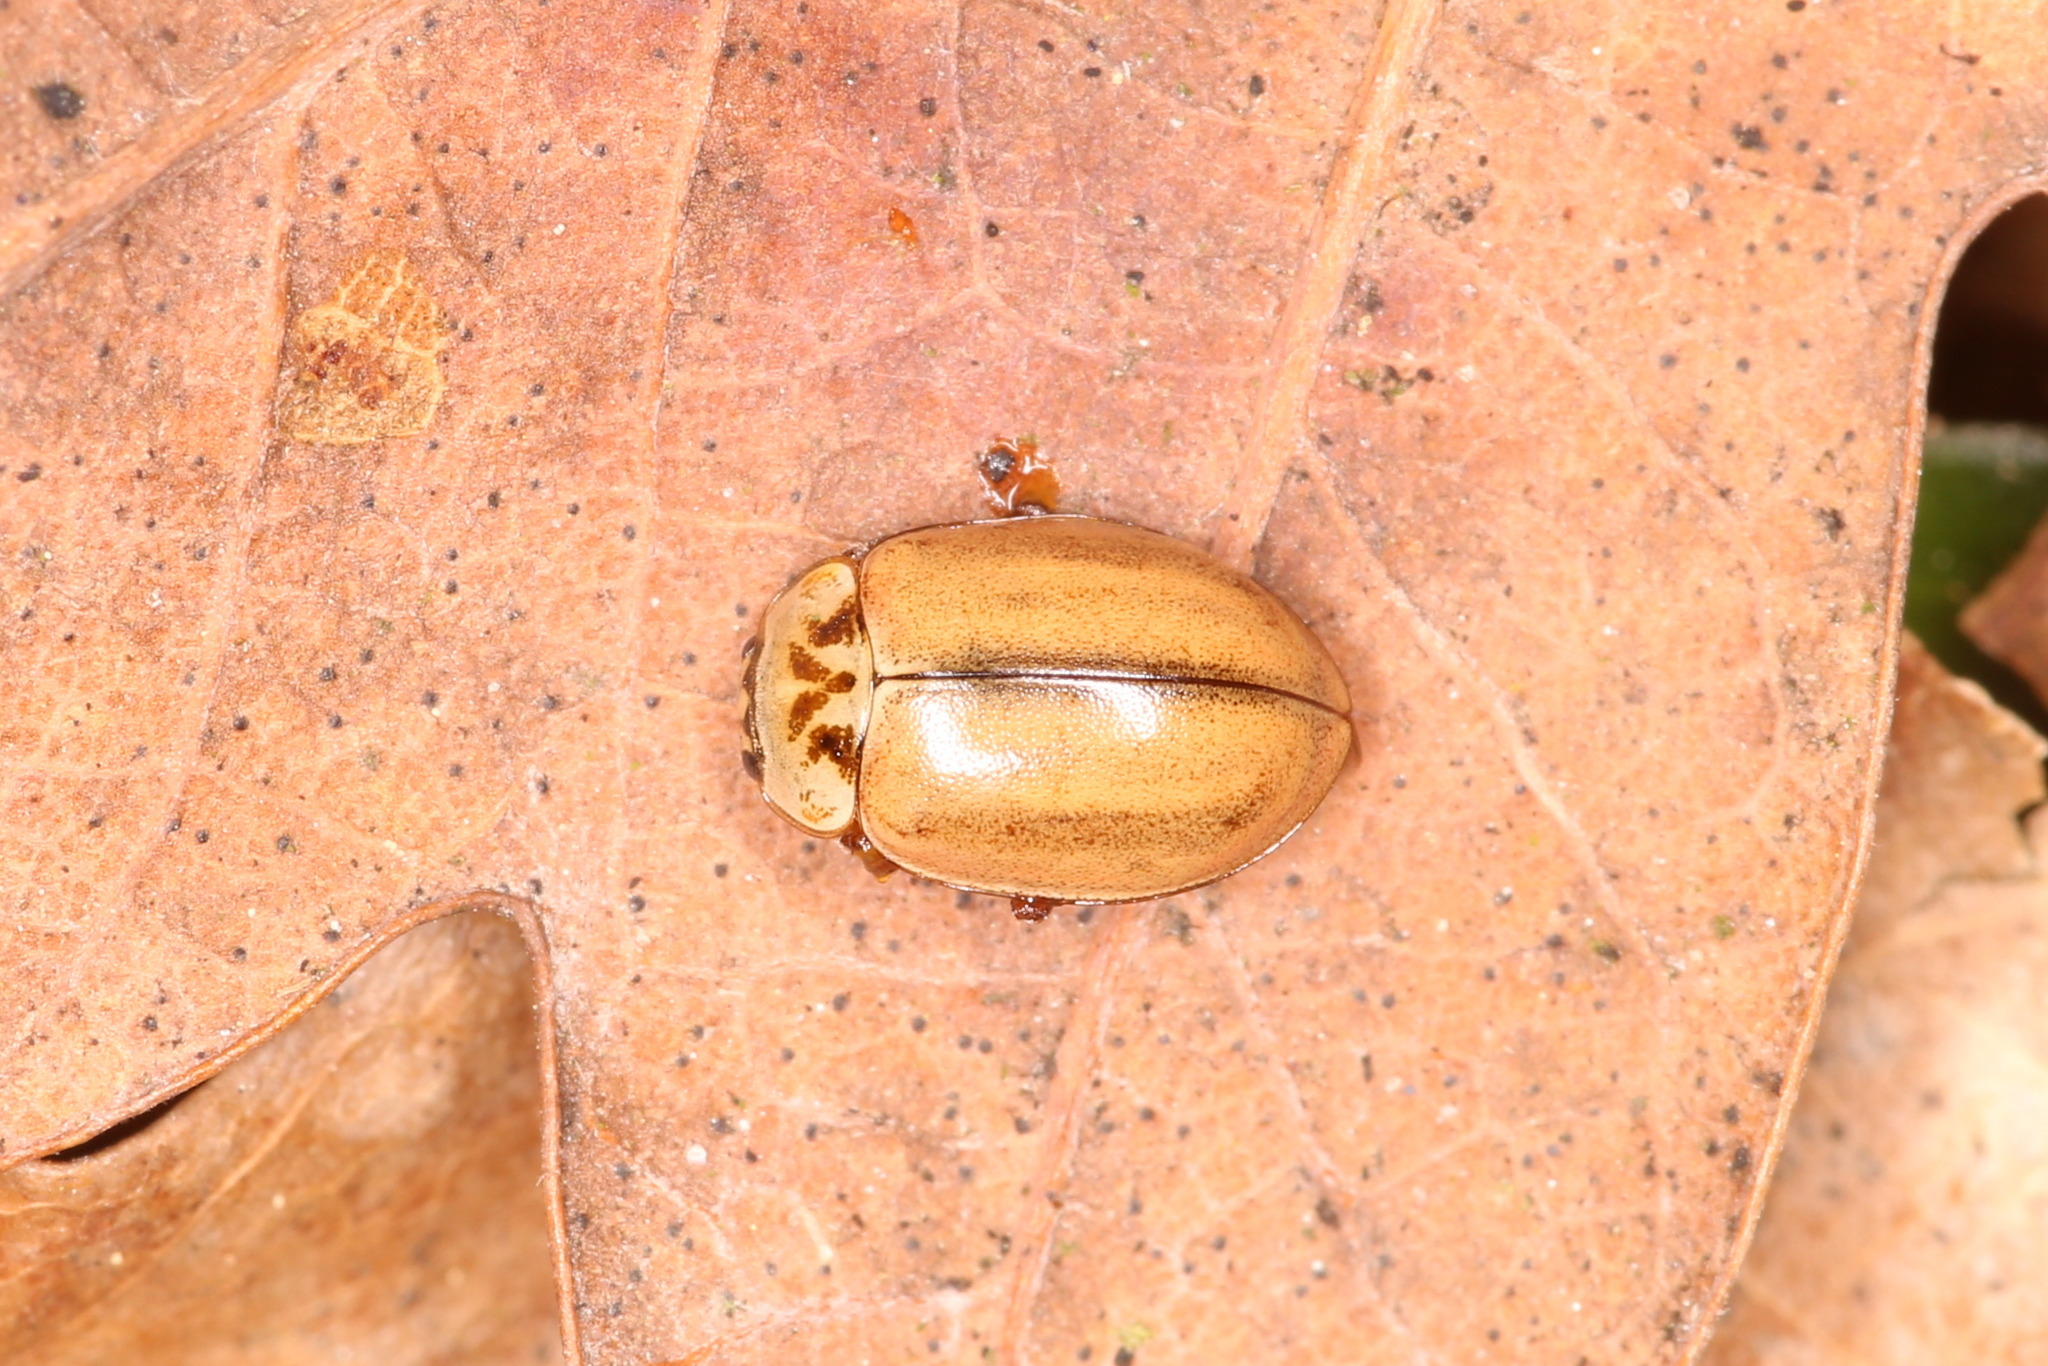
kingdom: Animalia
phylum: Arthropoda
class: Insecta
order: Coleoptera
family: Coccinellidae
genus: Aphidecta
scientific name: Aphidecta obliterata
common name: Larch ladybird
